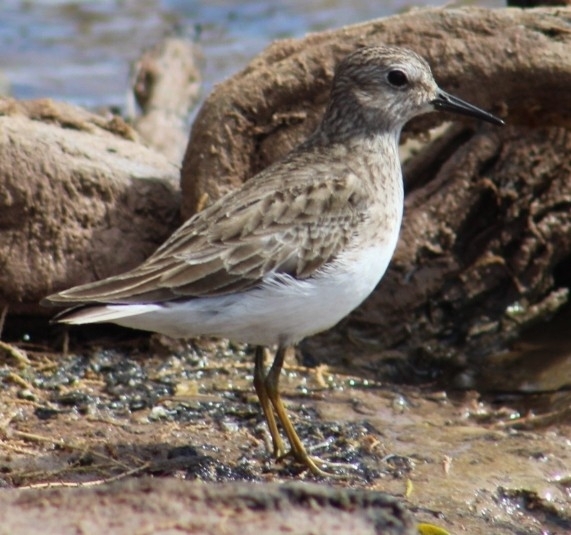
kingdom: Animalia
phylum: Chordata
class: Aves
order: Charadriiformes
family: Scolopacidae
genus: Calidris
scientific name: Calidris minutilla
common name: Least sandpiper
